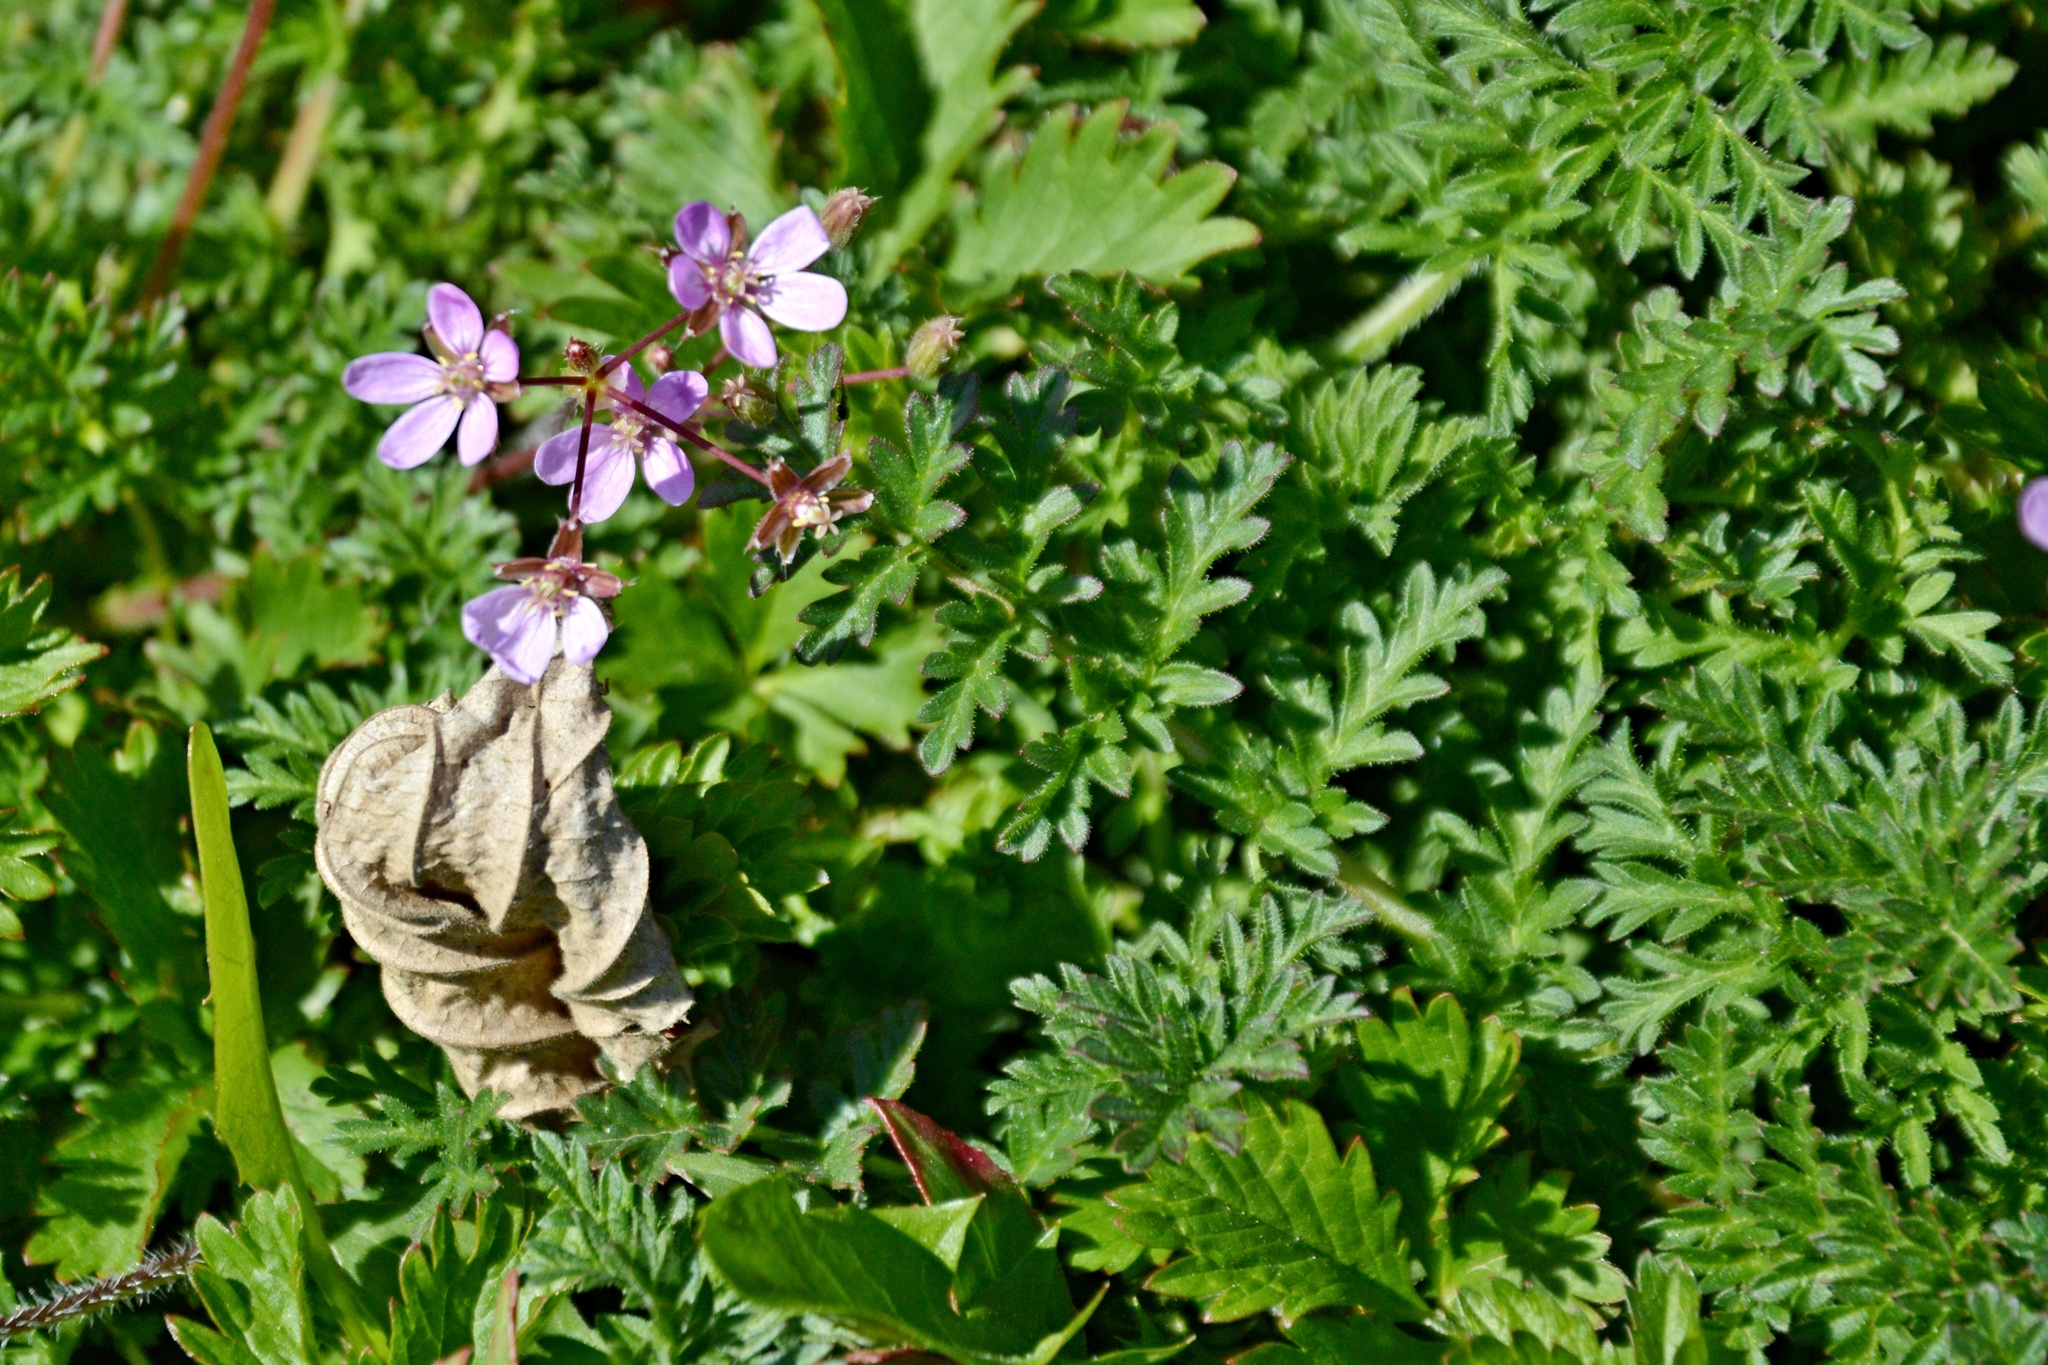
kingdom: Plantae
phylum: Tracheophyta
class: Magnoliopsida
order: Geraniales
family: Geraniaceae
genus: Erodium
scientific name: Erodium cicutarium
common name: Common stork's-bill
